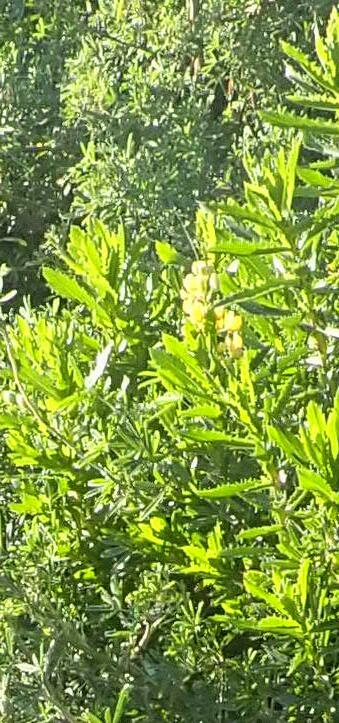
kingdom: Plantae
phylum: Tracheophyta
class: Magnoliopsida
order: Fabales
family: Fabaceae
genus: Lupinus
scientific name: Lupinus arboreus
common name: Yellow bush lupine
